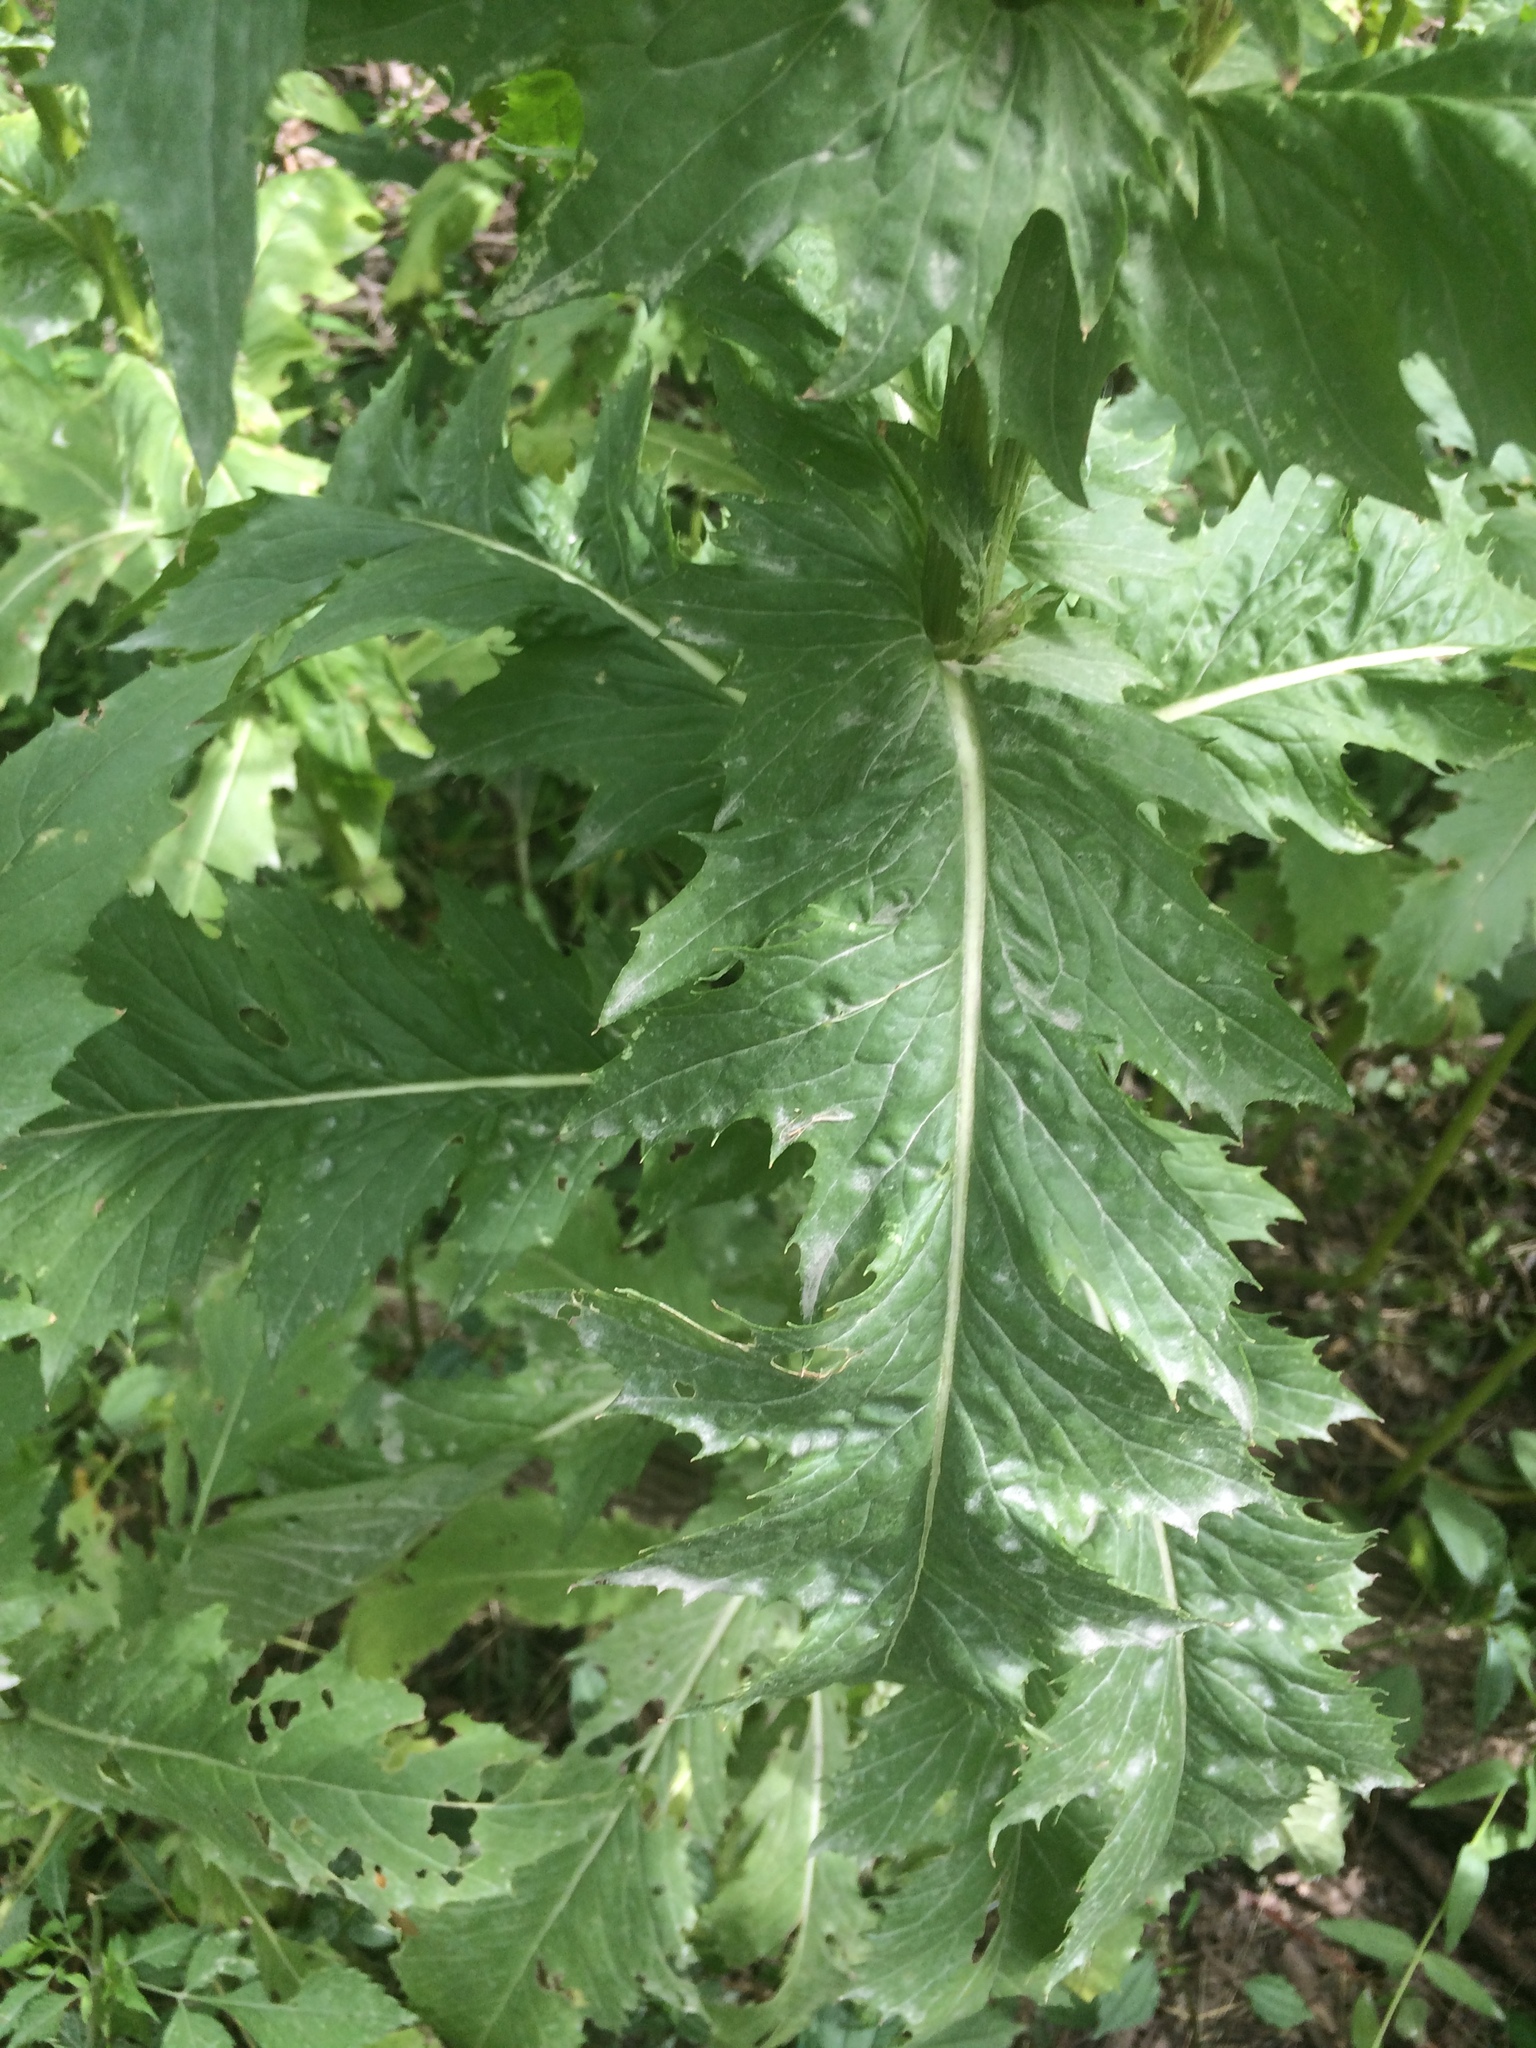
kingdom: Plantae
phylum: Tracheophyta
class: Magnoliopsida
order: Asterales
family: Asteraceae
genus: Erechtites
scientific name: Erechtites hieraciifolius
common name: American burnweed
